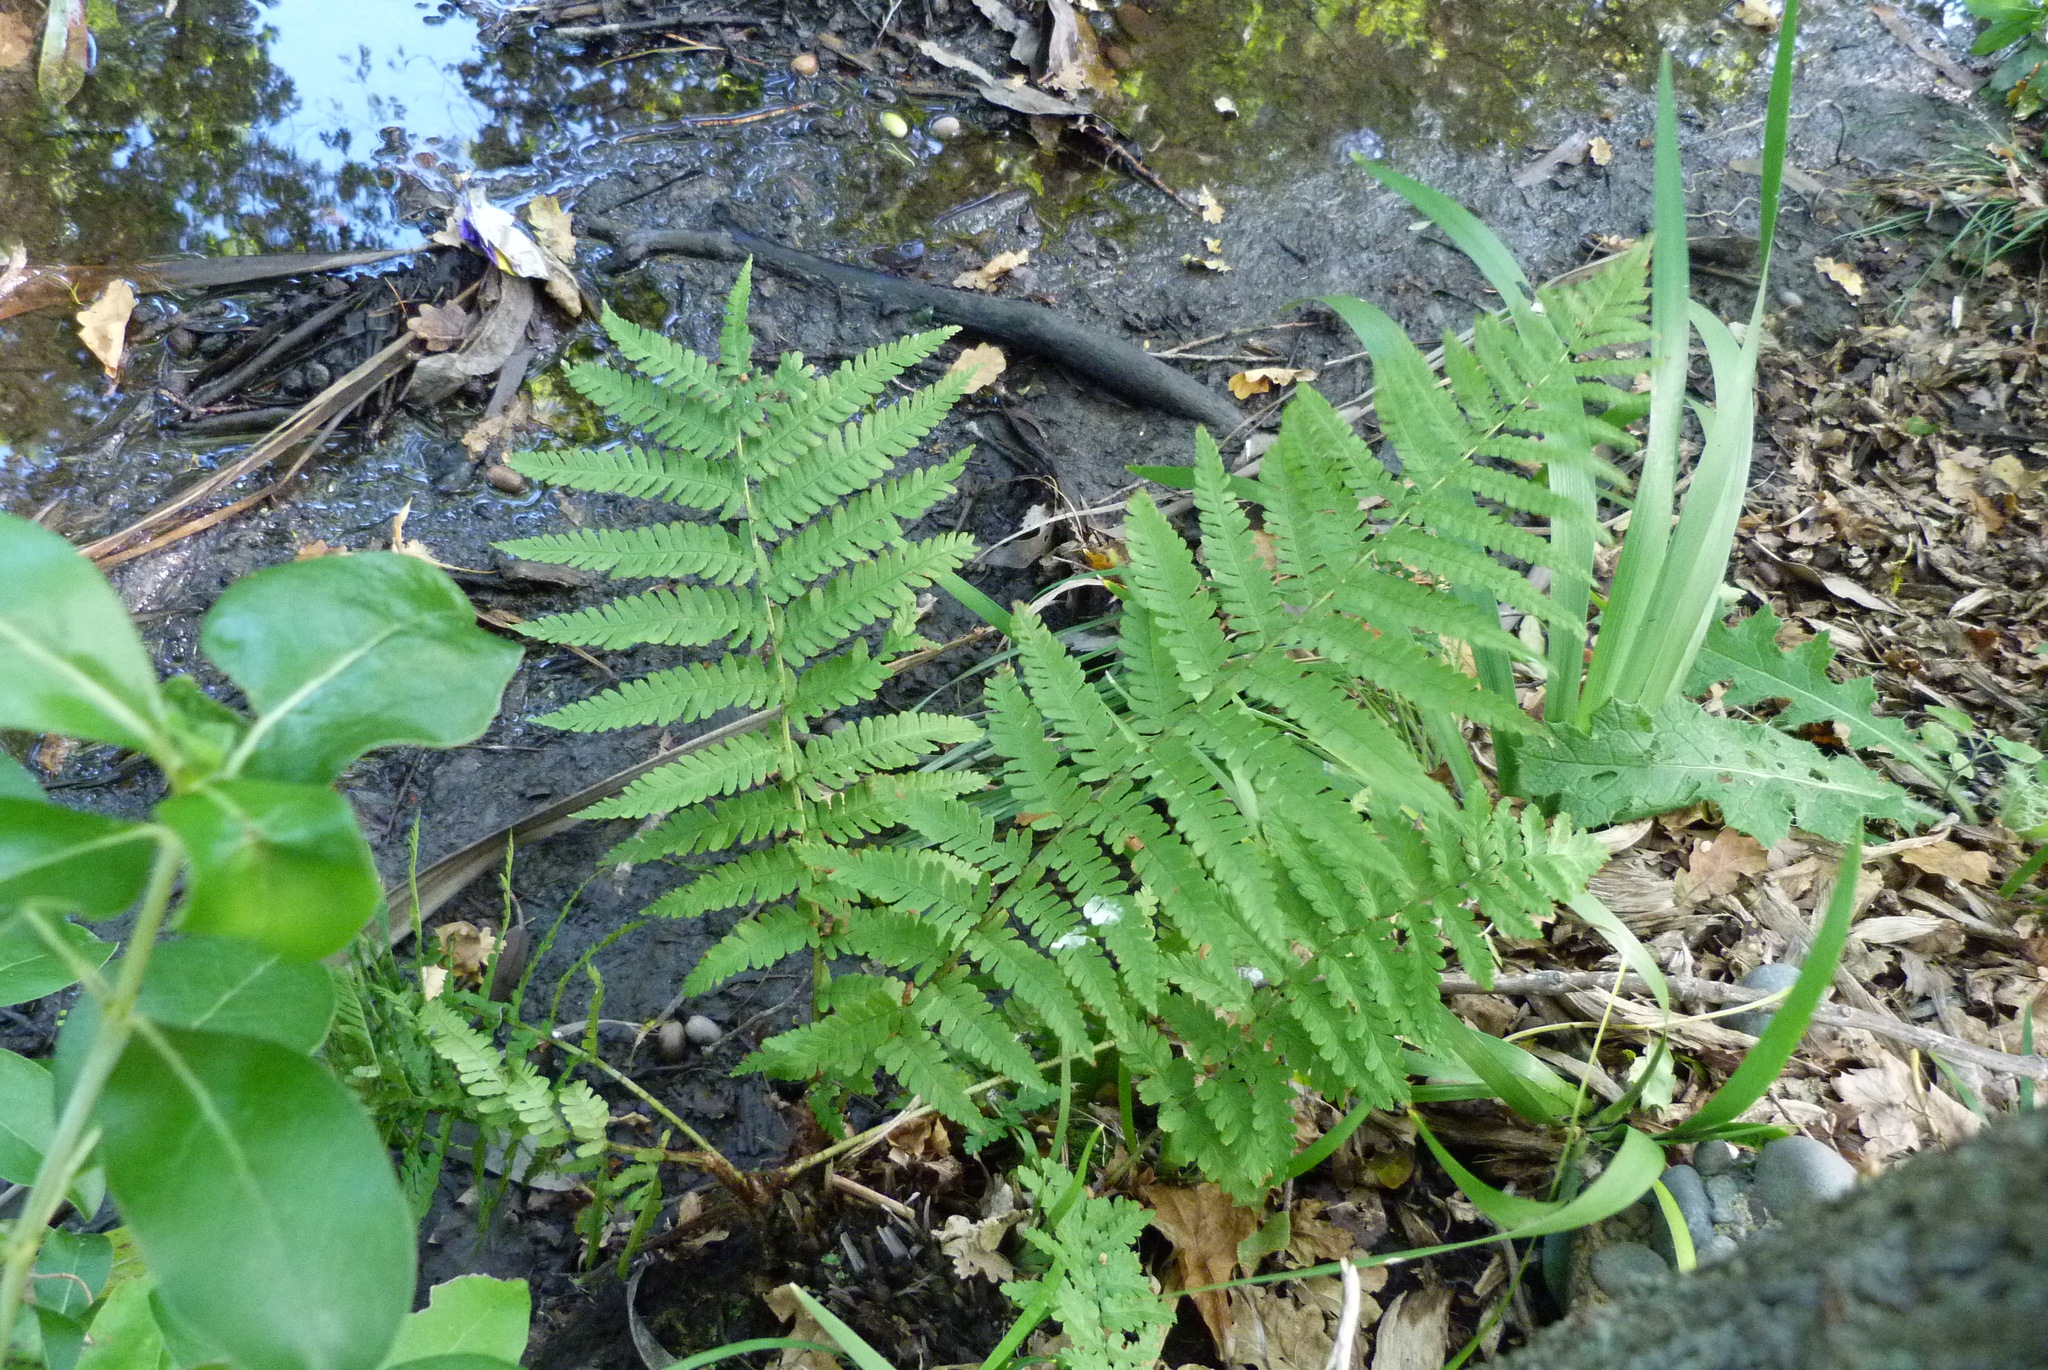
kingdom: Plantae
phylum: Tracheophyta
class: Polypodiopsida
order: Polypodiales
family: Dryopteridaceae
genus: Dryopteris
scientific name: Dryopteris filix-mas
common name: Male fern
